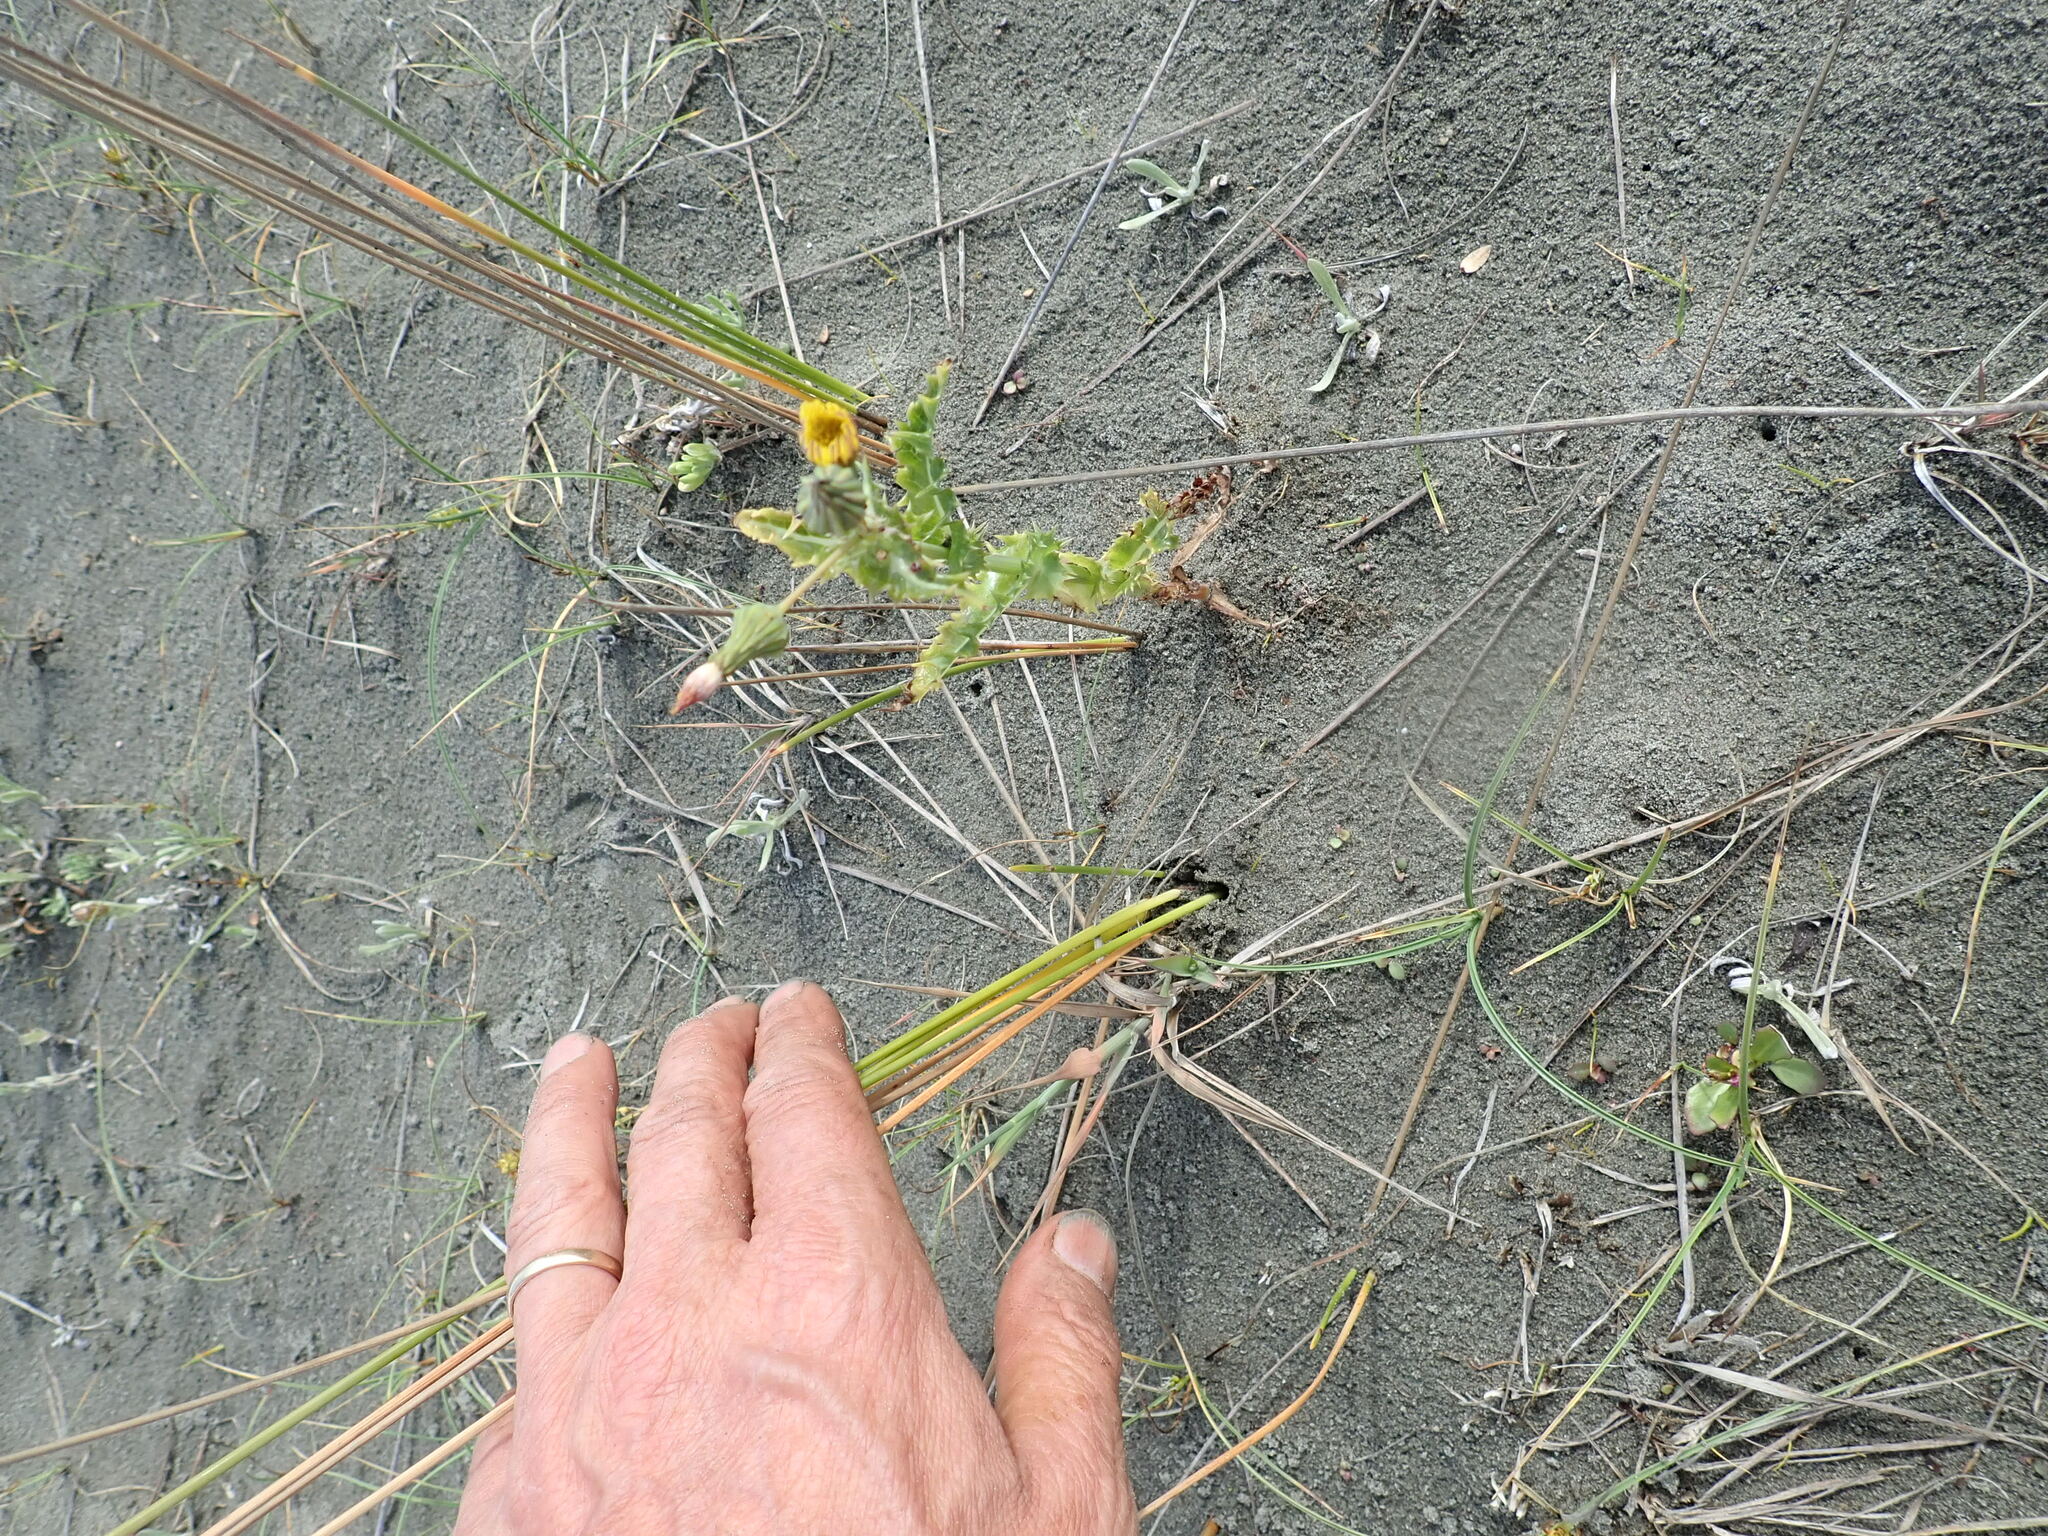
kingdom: Plantae
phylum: Tracheophyta
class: Magnoliopsida
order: Asterales
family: Asteraceae
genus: Sonchus
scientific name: Sonchus asper
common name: Prickly sow-thistle
